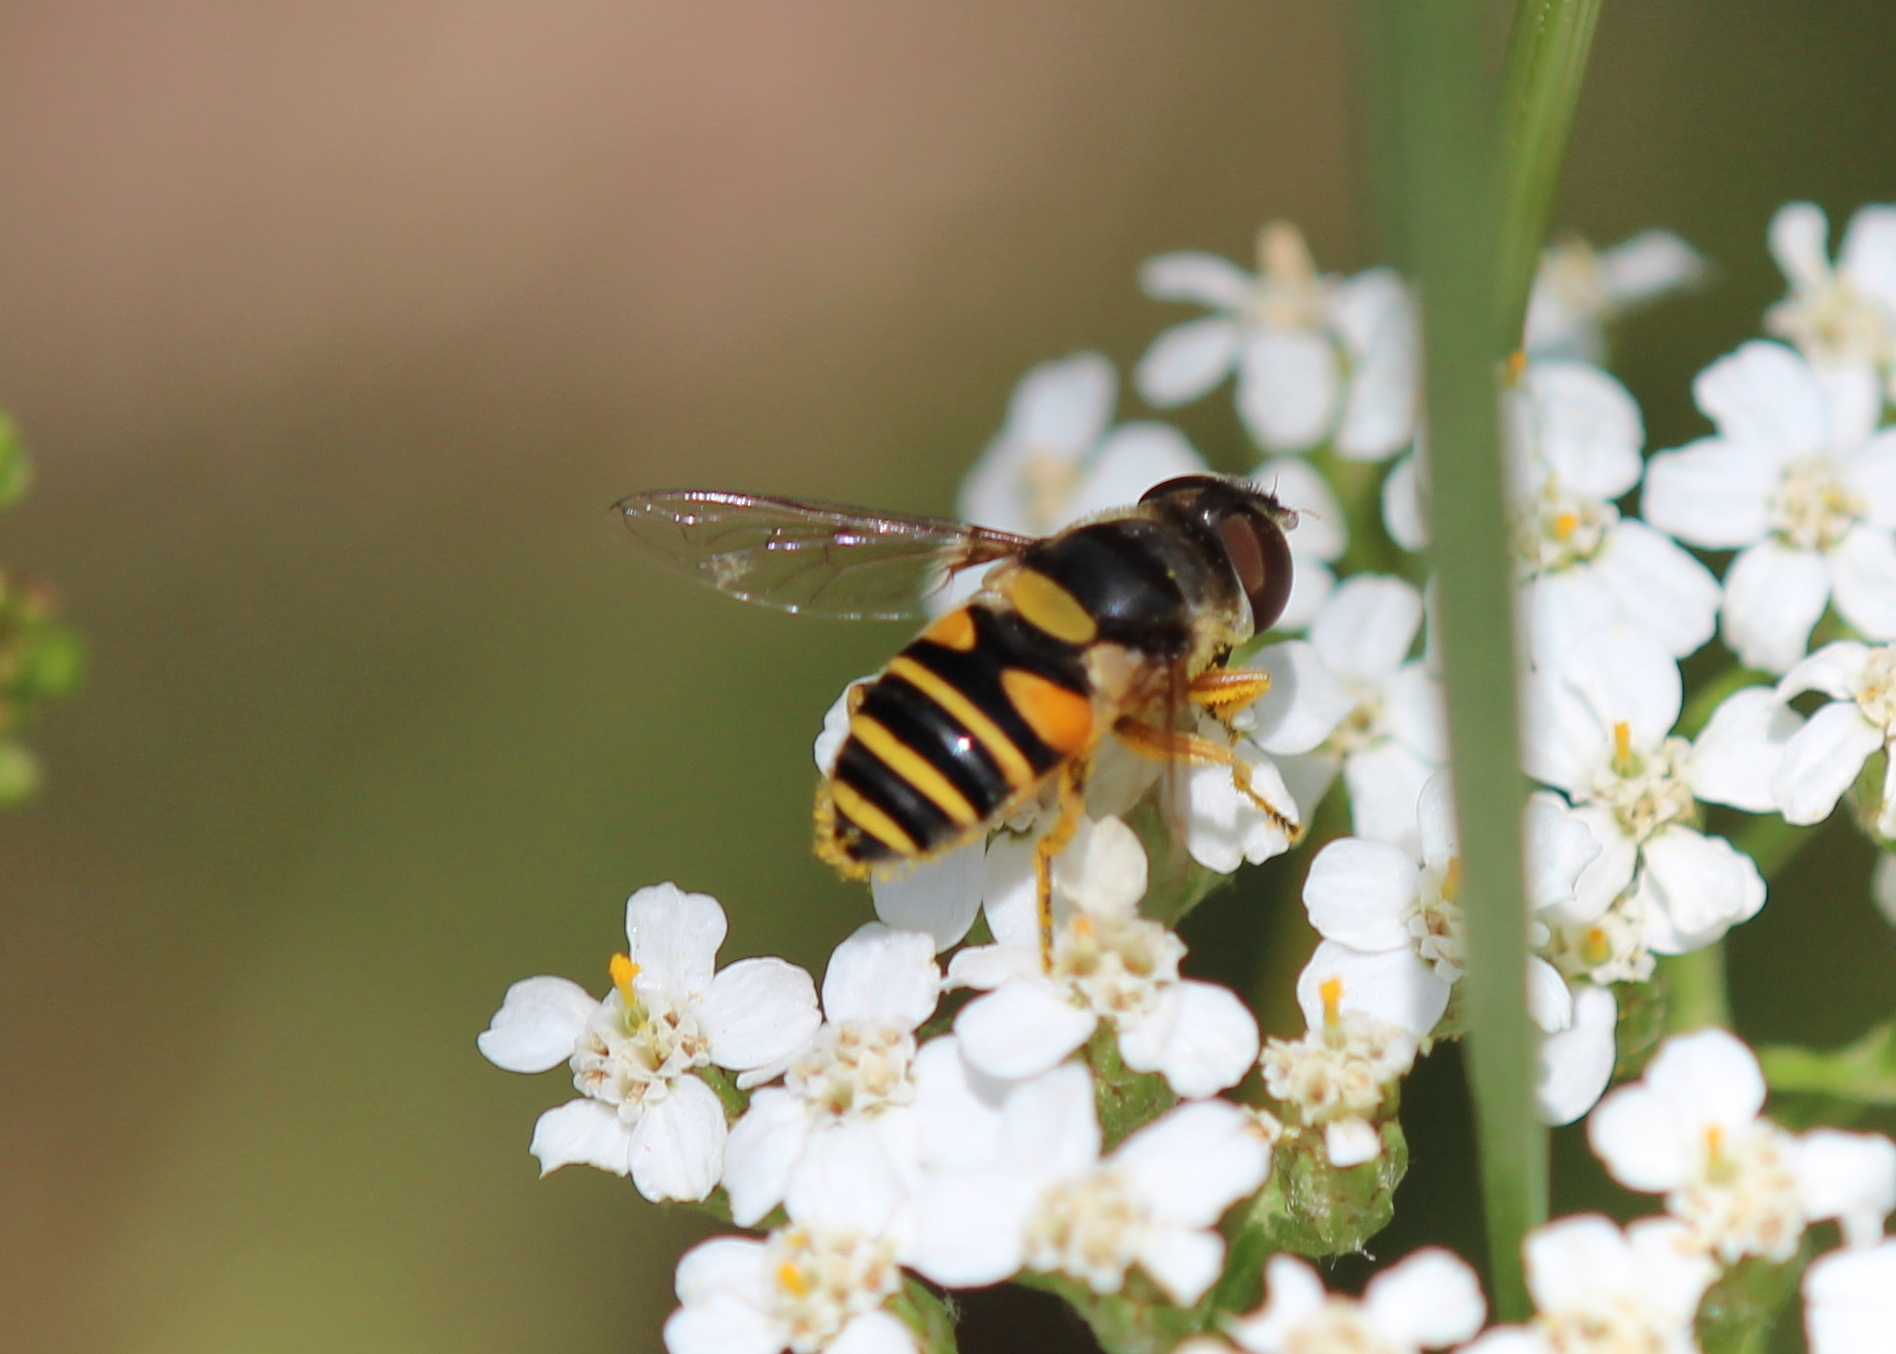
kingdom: Animalia
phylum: Arthropoda
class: Insecta
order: Diptera
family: Syrphidae
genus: Eristalis
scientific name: Eristalis transversa
